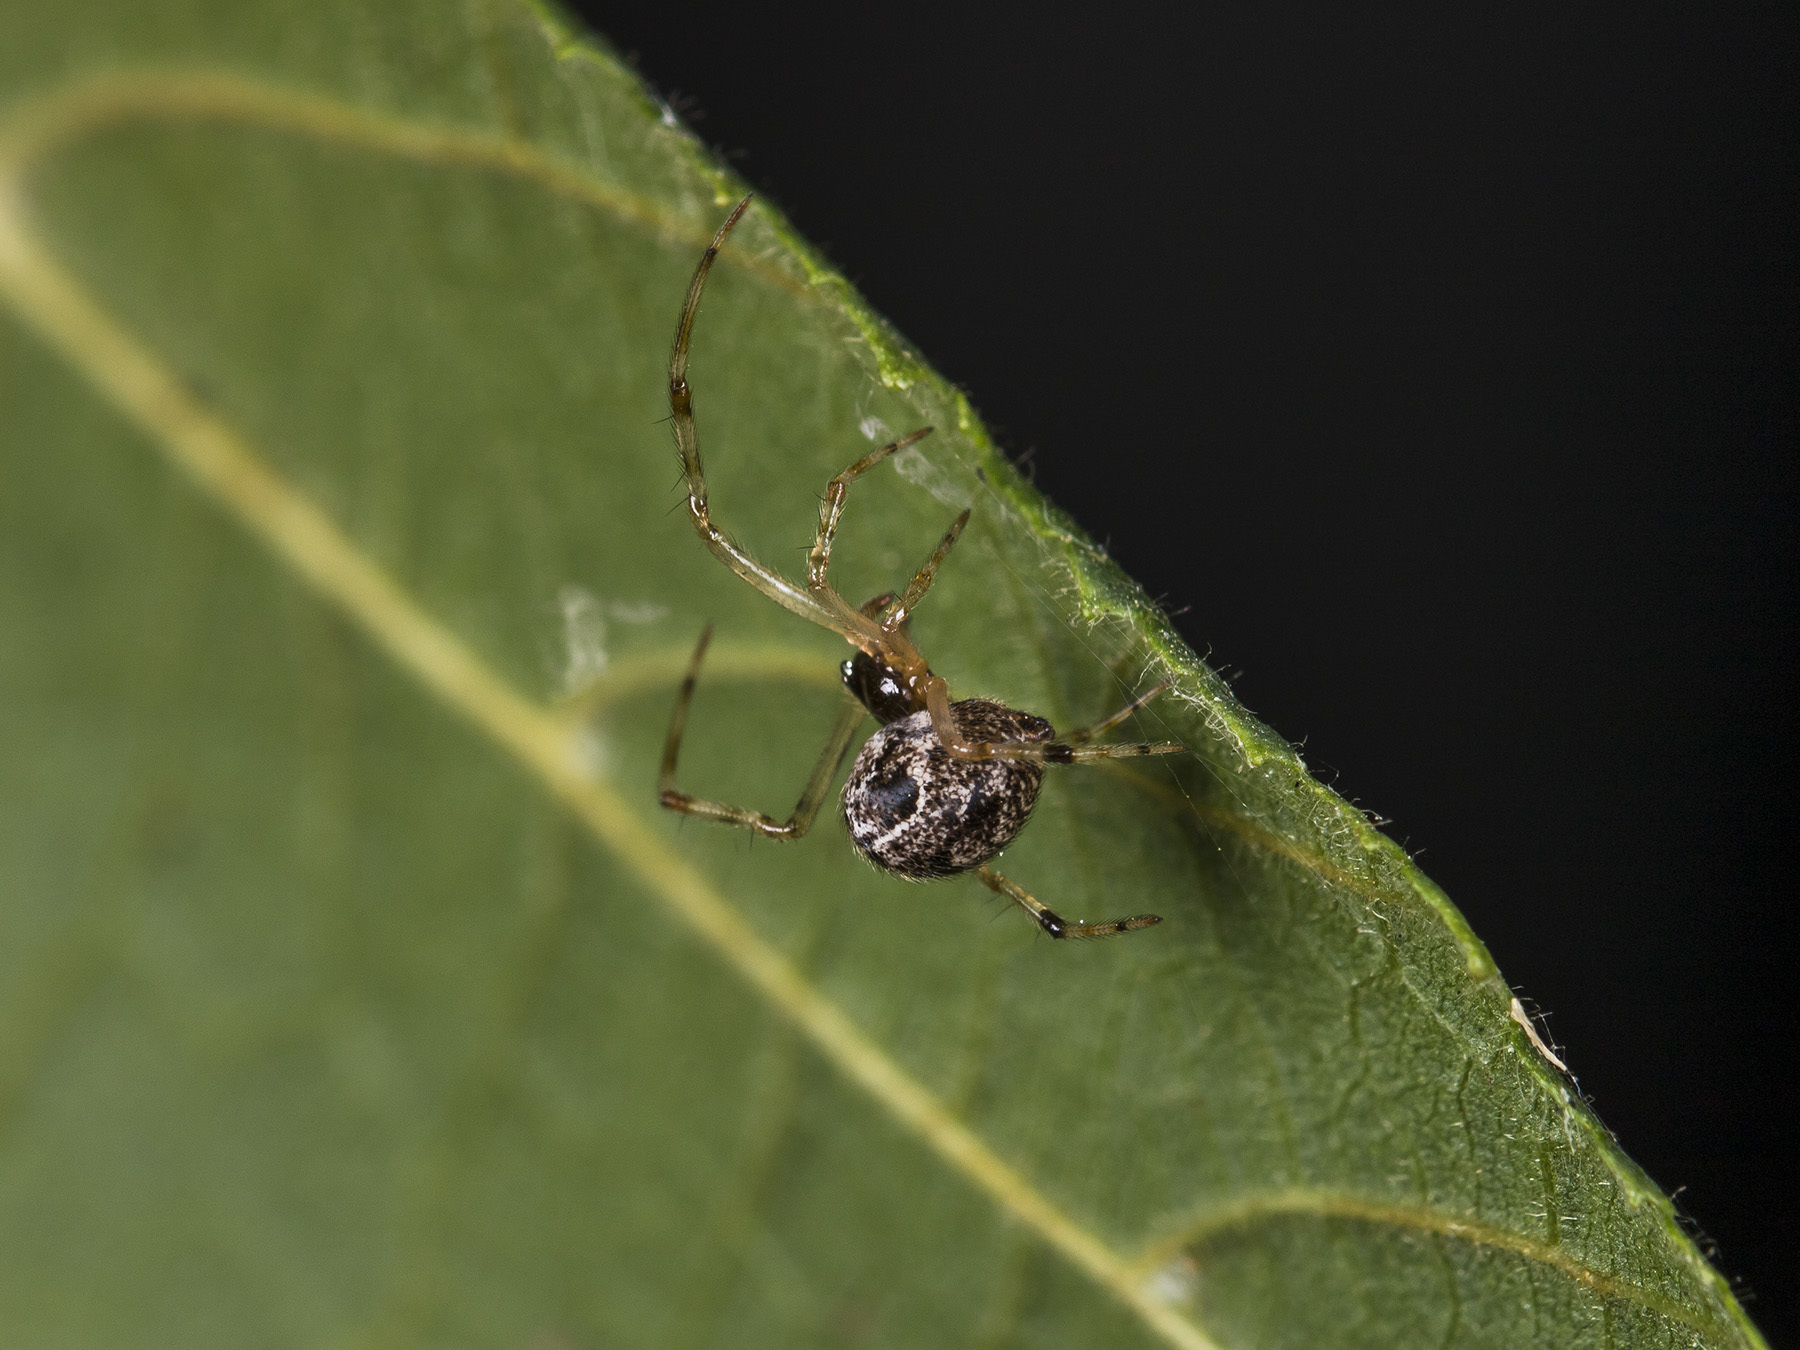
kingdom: Animalia
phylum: Arthropoda
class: Arachnida
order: Araneae
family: Theridiidae
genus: Parasteatoda
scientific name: Parasteatoda tepidariorum
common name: Common house spider
